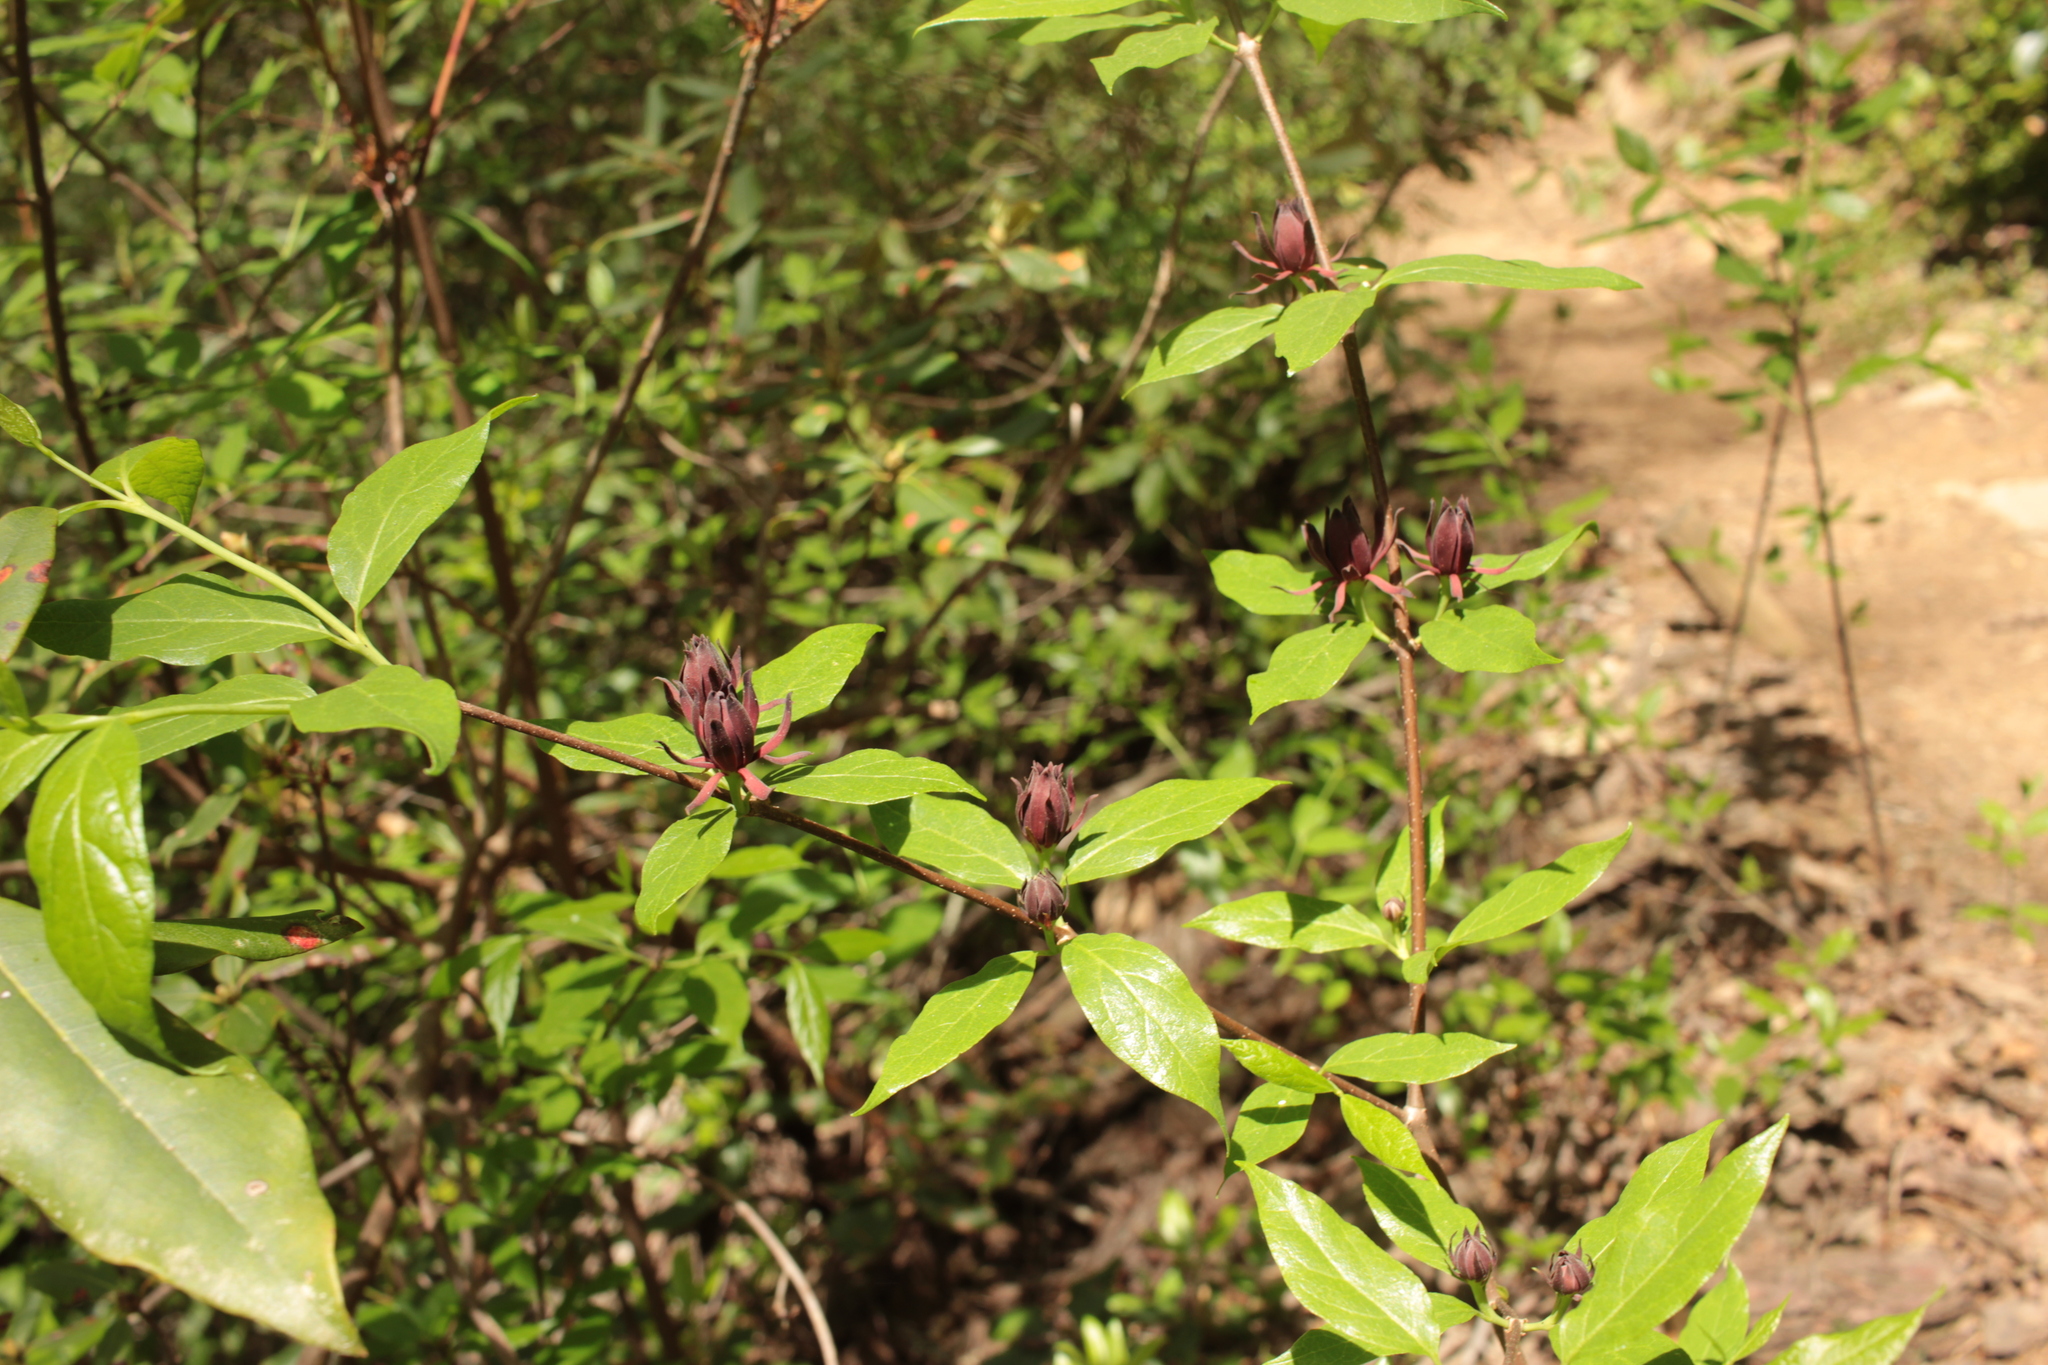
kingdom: Plantae
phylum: Tracheophyta
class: Magnoliopsida
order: Laurales
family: Calycanthaceae
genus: Calycanthus
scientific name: Calycanthus floridus
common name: Carolina-allspice
